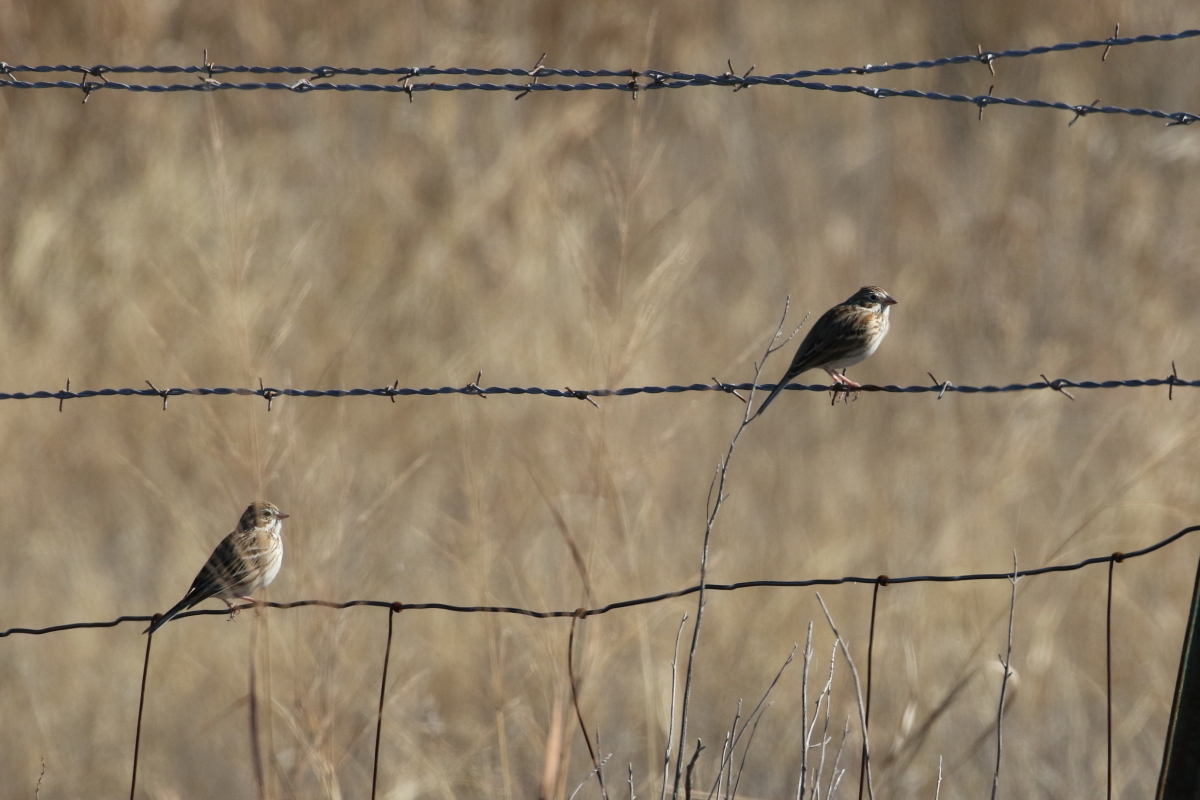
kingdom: Animalia
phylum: Chordata
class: Aves
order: Passeriformes
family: Passerellidae
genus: Pooecetes
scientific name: Pooecetes gramineus
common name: Vesper sparrow
